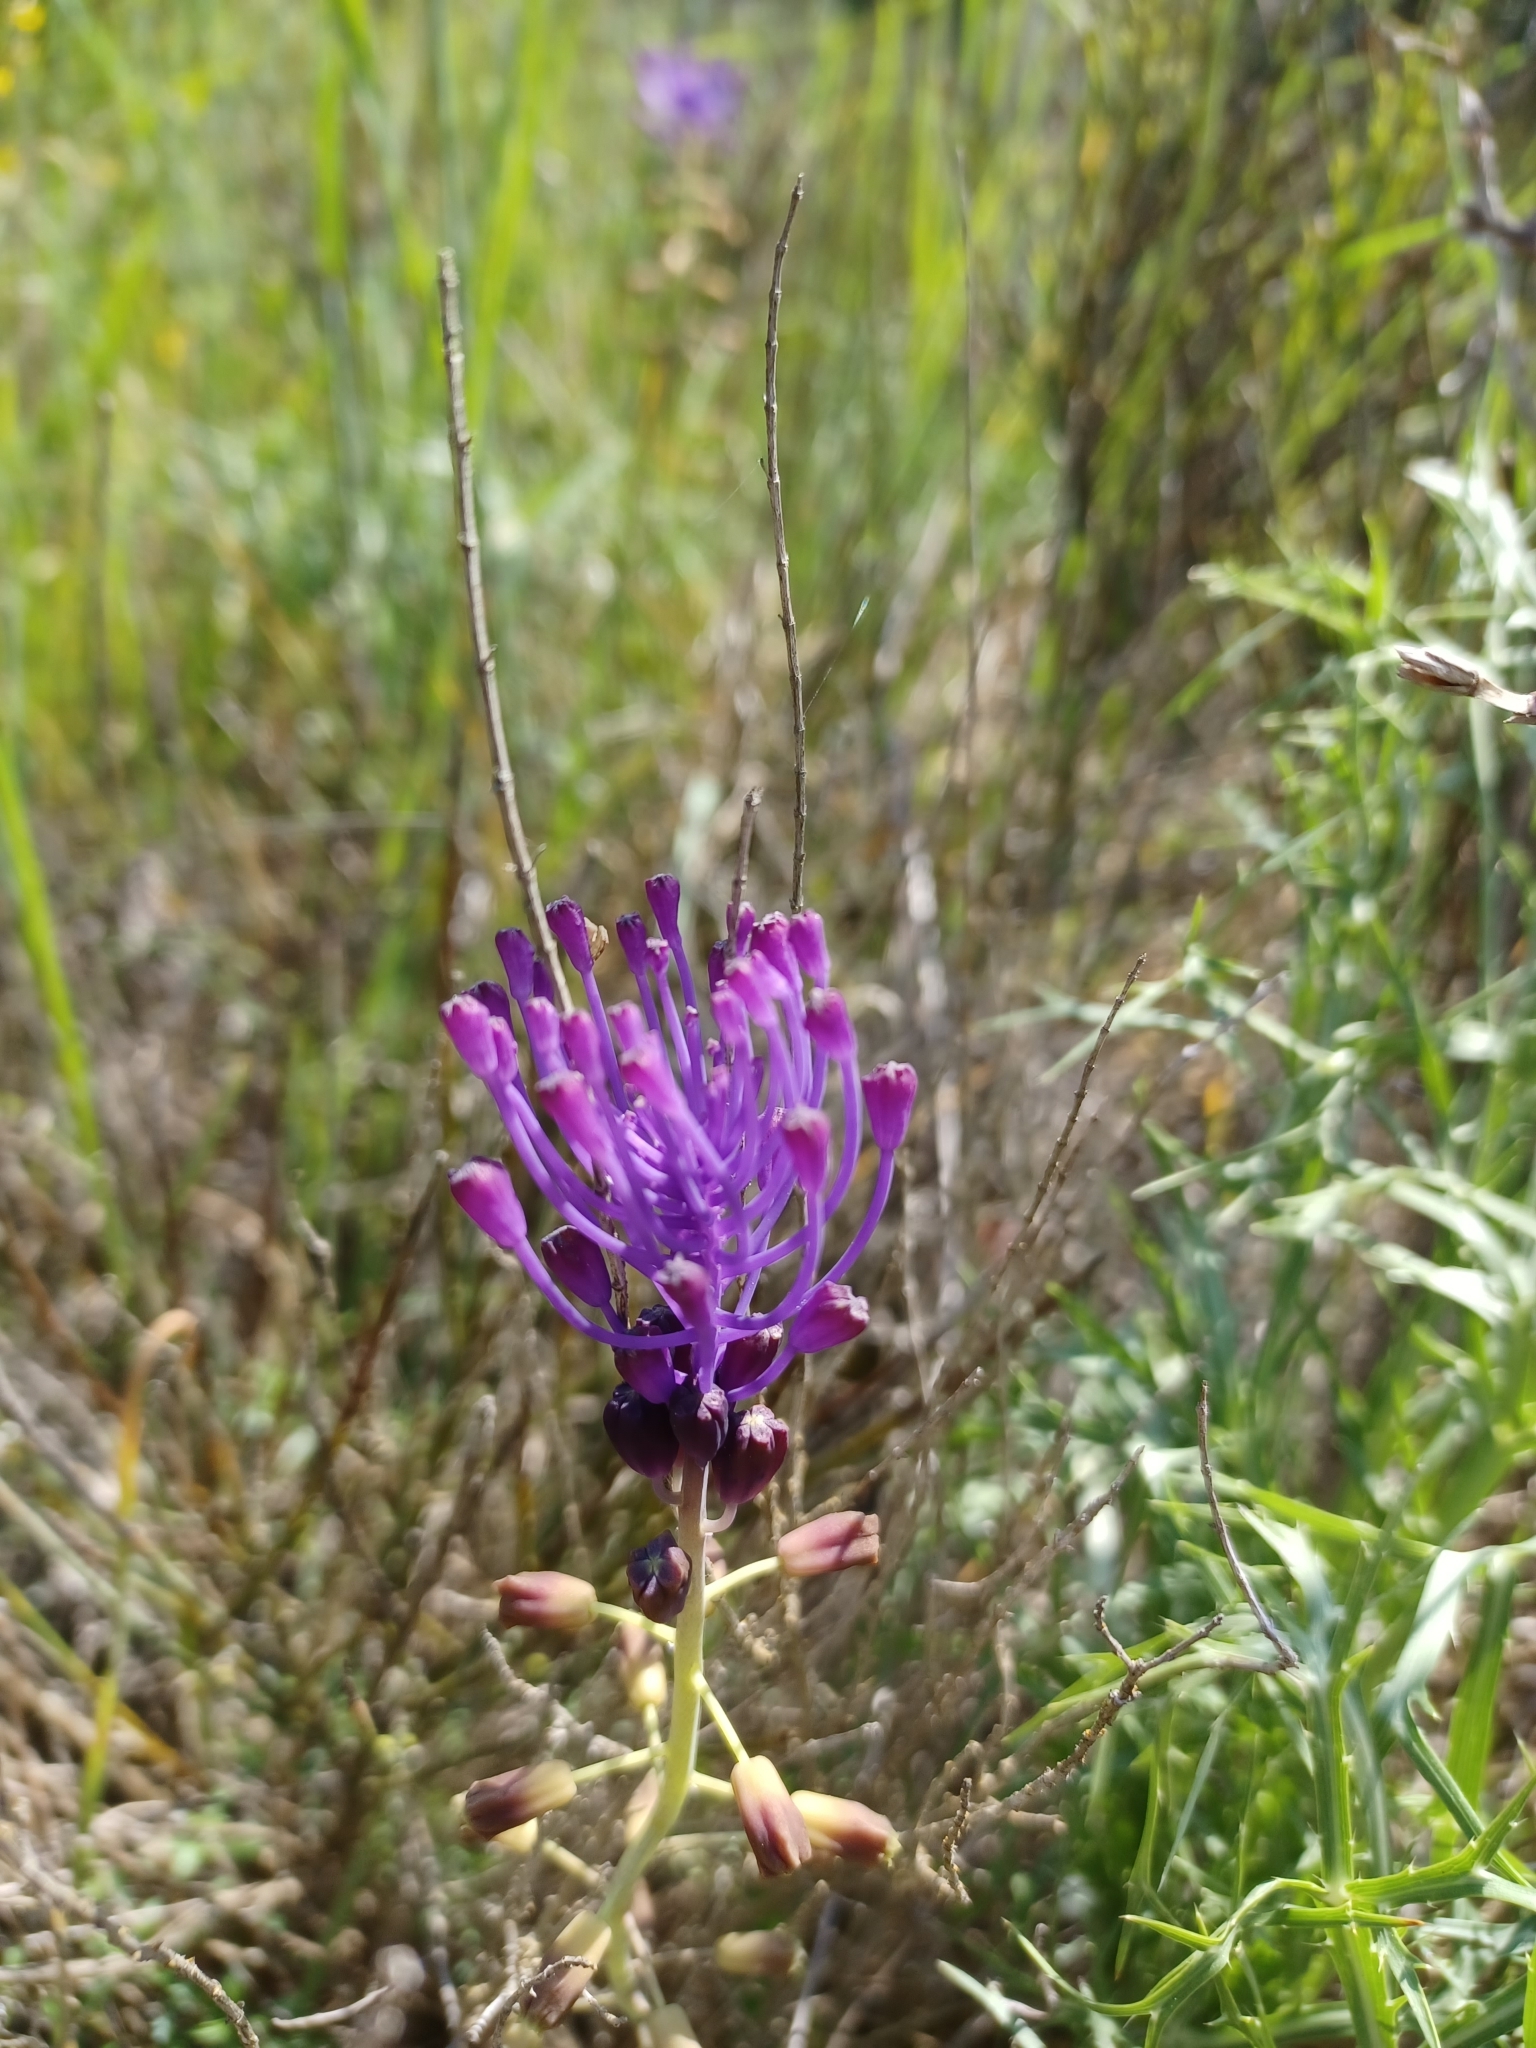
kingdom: Plantae
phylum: Tracheophyta
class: Liliopsida
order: Asparagales
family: Asparagaceae
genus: Muscari
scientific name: Muscari comosum
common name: Tassel hyacinth
